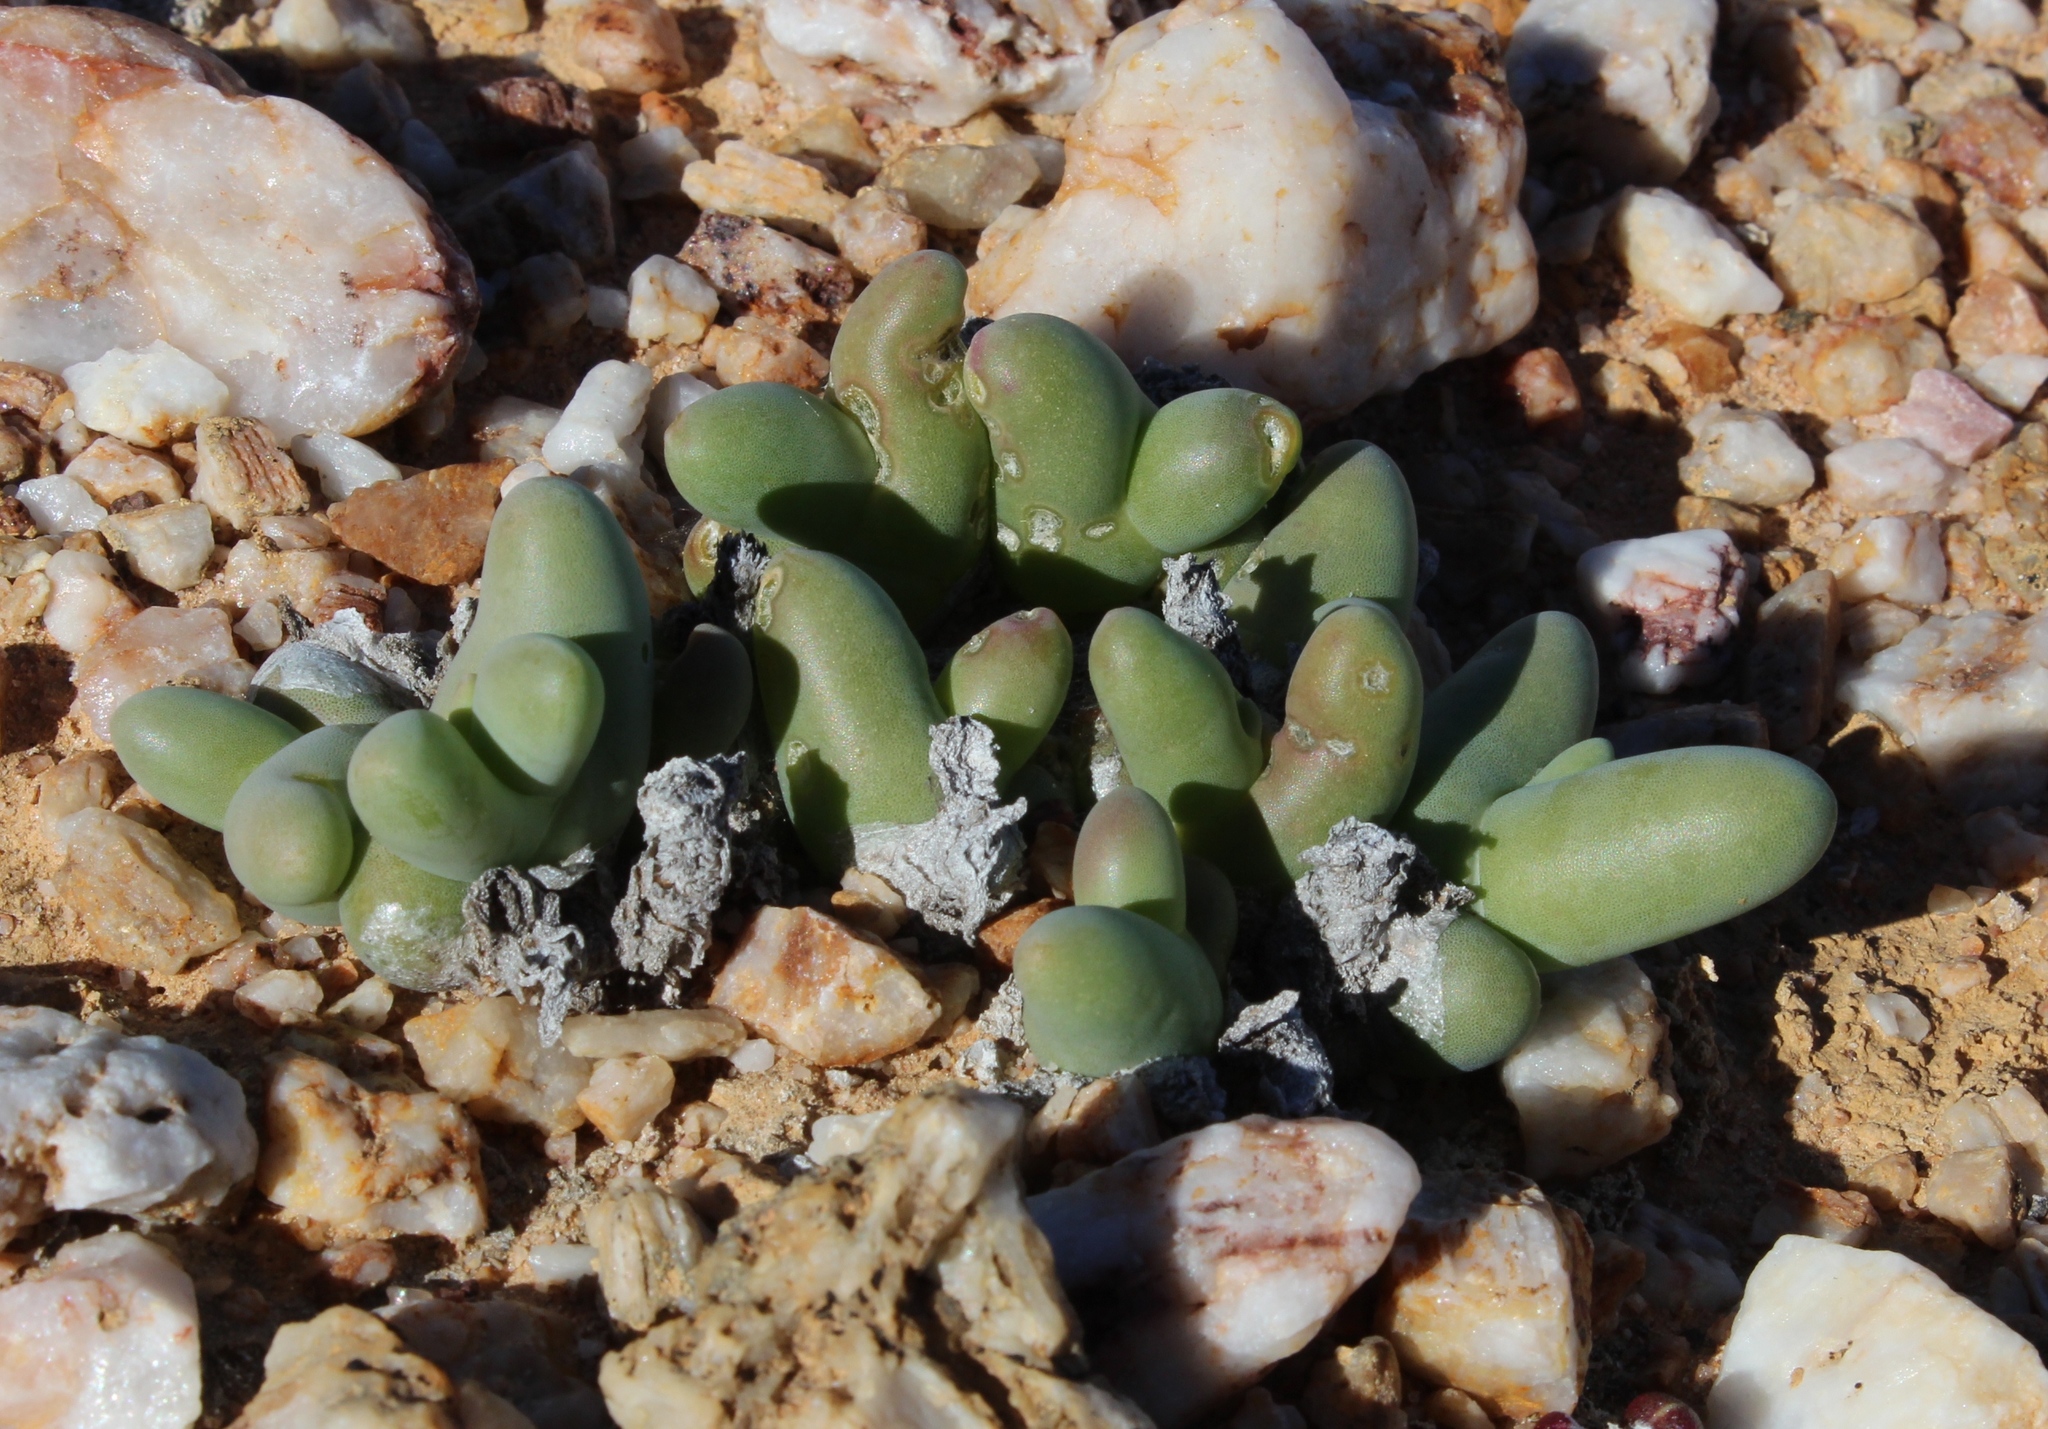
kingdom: Plantae
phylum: Tracheophyta
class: Magnoliopsida
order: Caryophyllales
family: Aizoaceae
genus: Mesembryanthemum
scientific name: Mesembryanthemum digitatum
